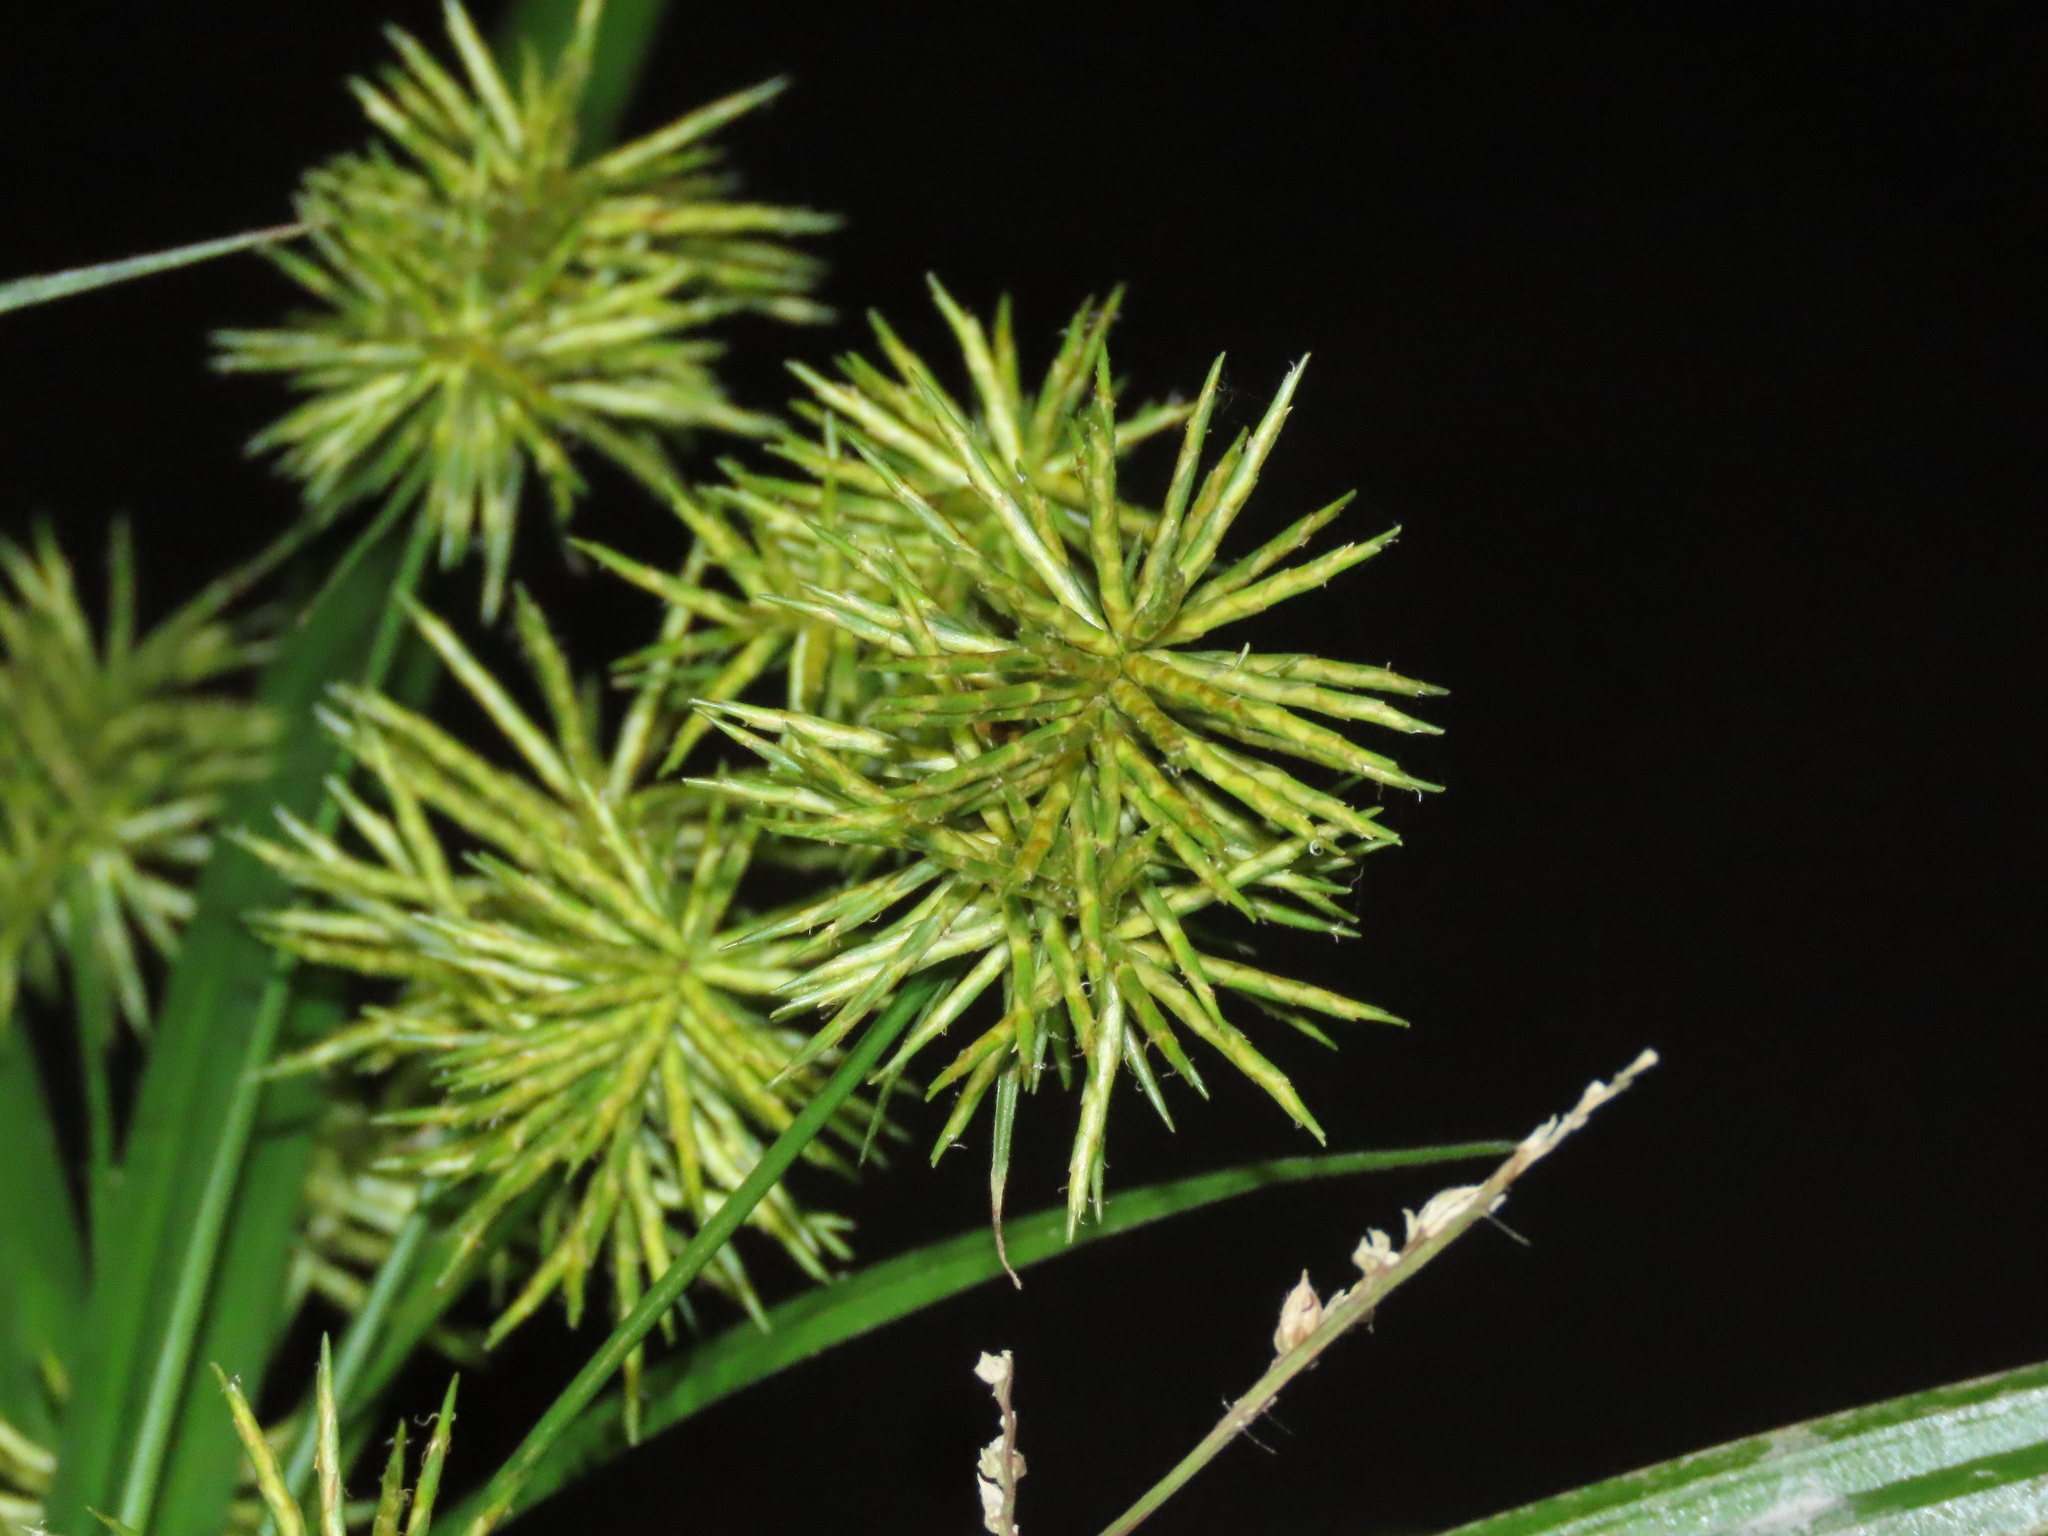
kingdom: Plantae
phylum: Tracheophyta
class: Liliopsida
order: Poales
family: Cyperaceae
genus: Cyperus
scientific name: Cyperus odoratus
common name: Fragrant flatsedge
